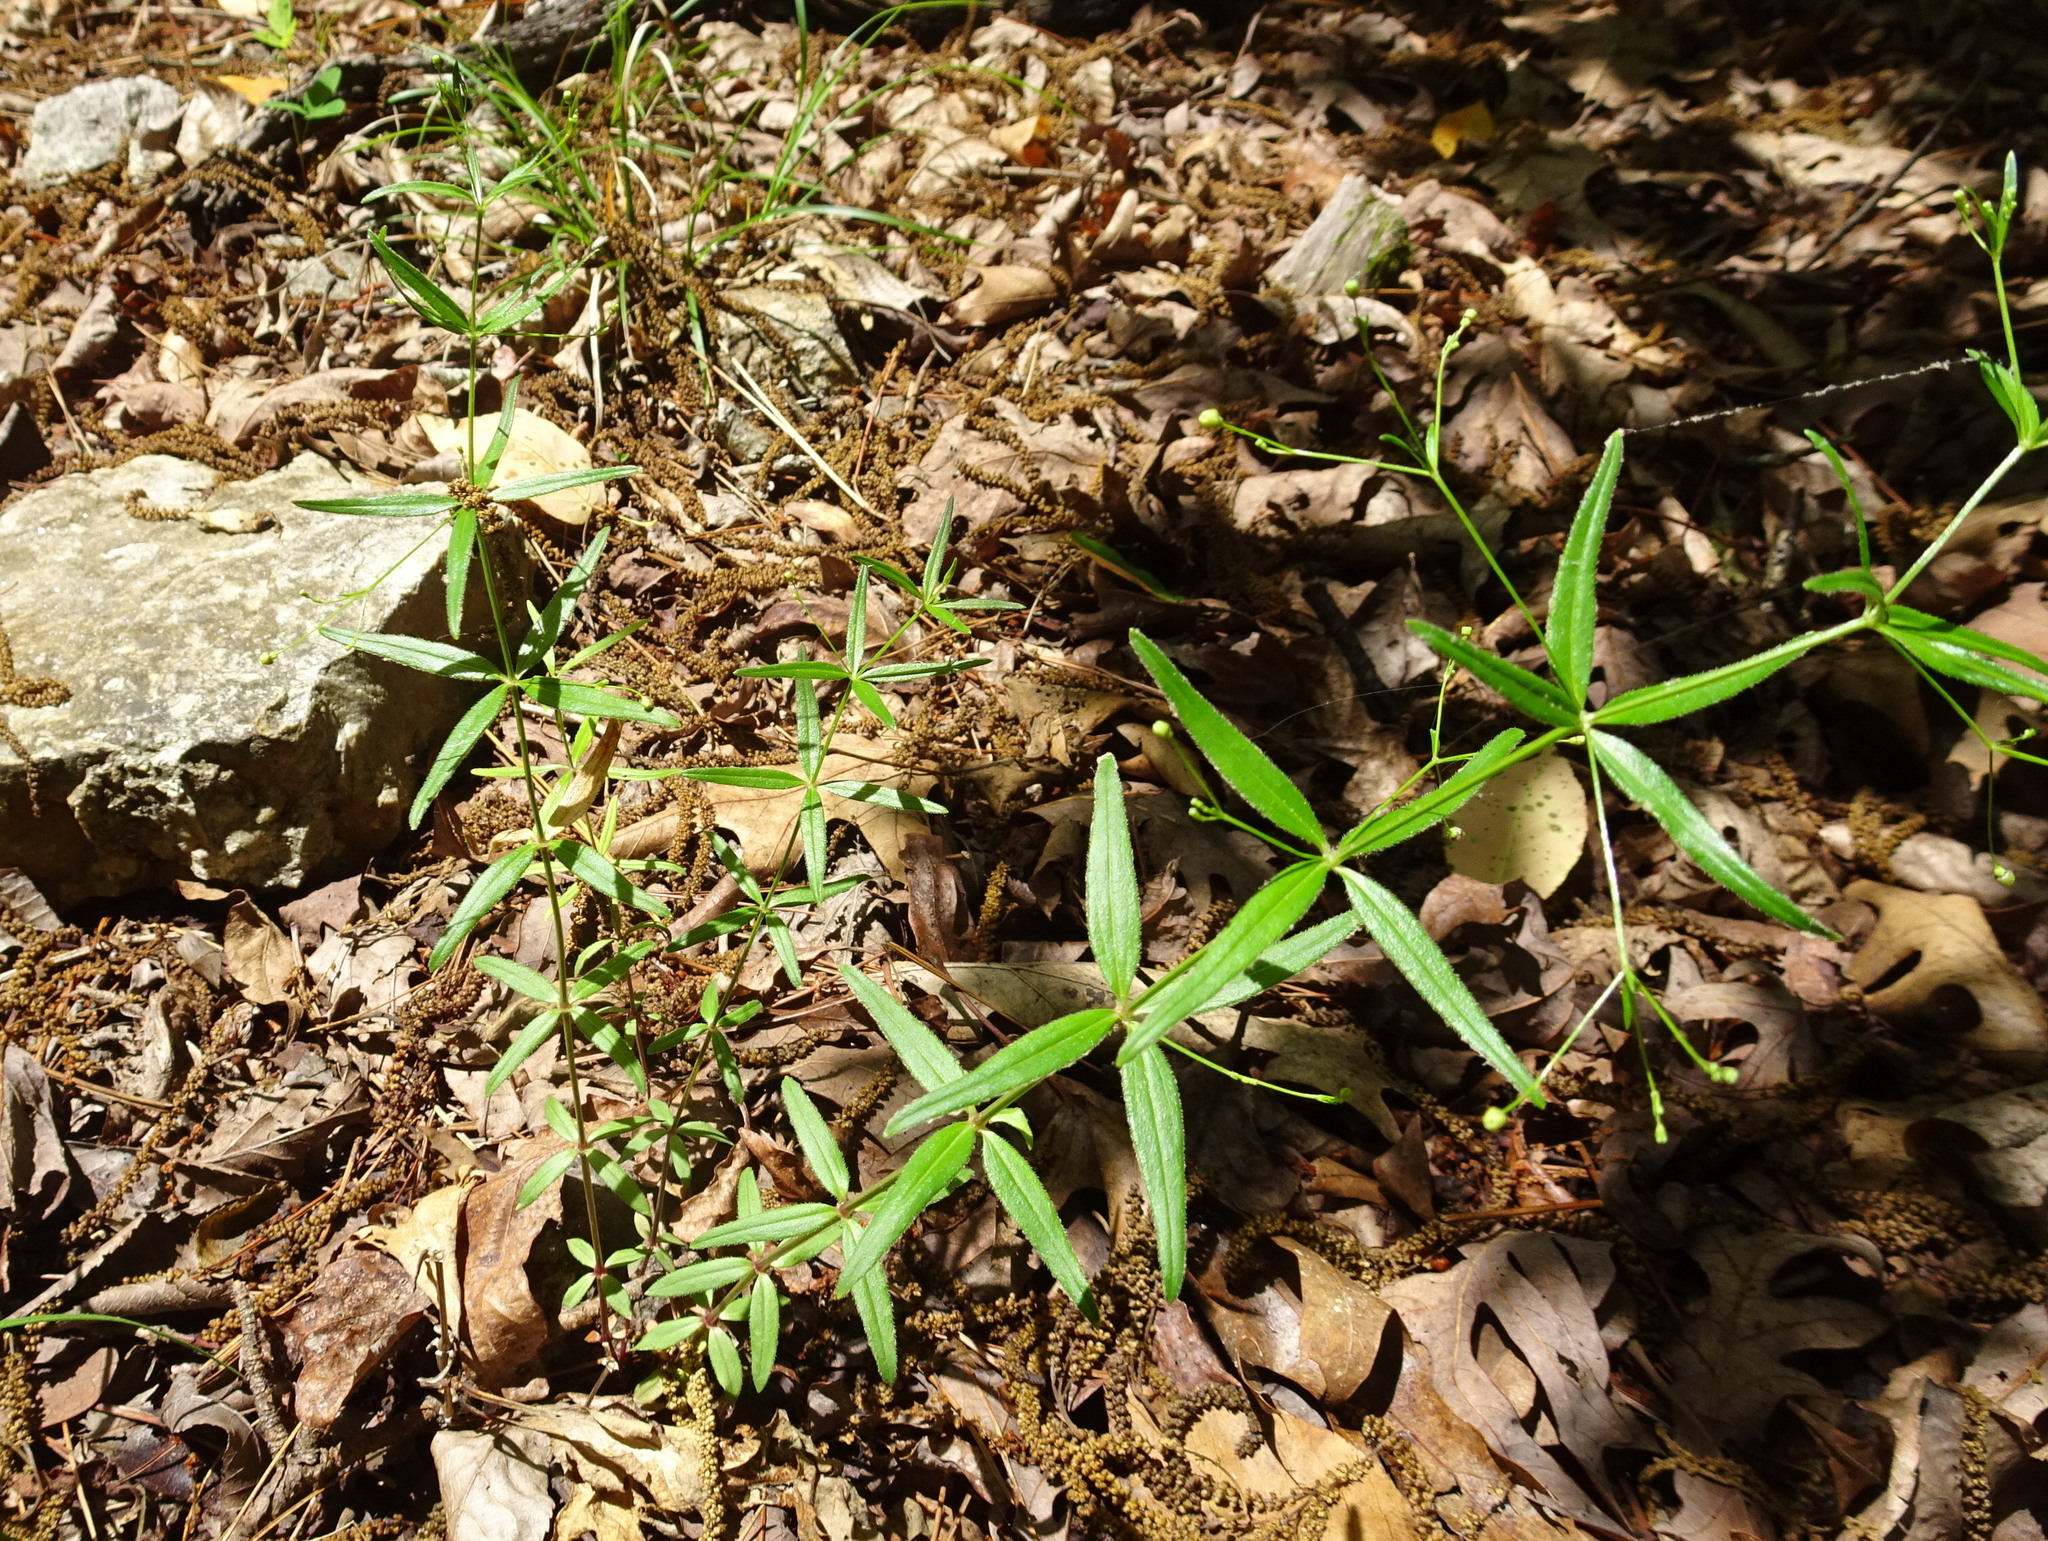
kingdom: Plantae
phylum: Tracheophyta
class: Magnoliopsida
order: Gentianales
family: Rubiaceae
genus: Galium
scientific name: Galium arkansanum
